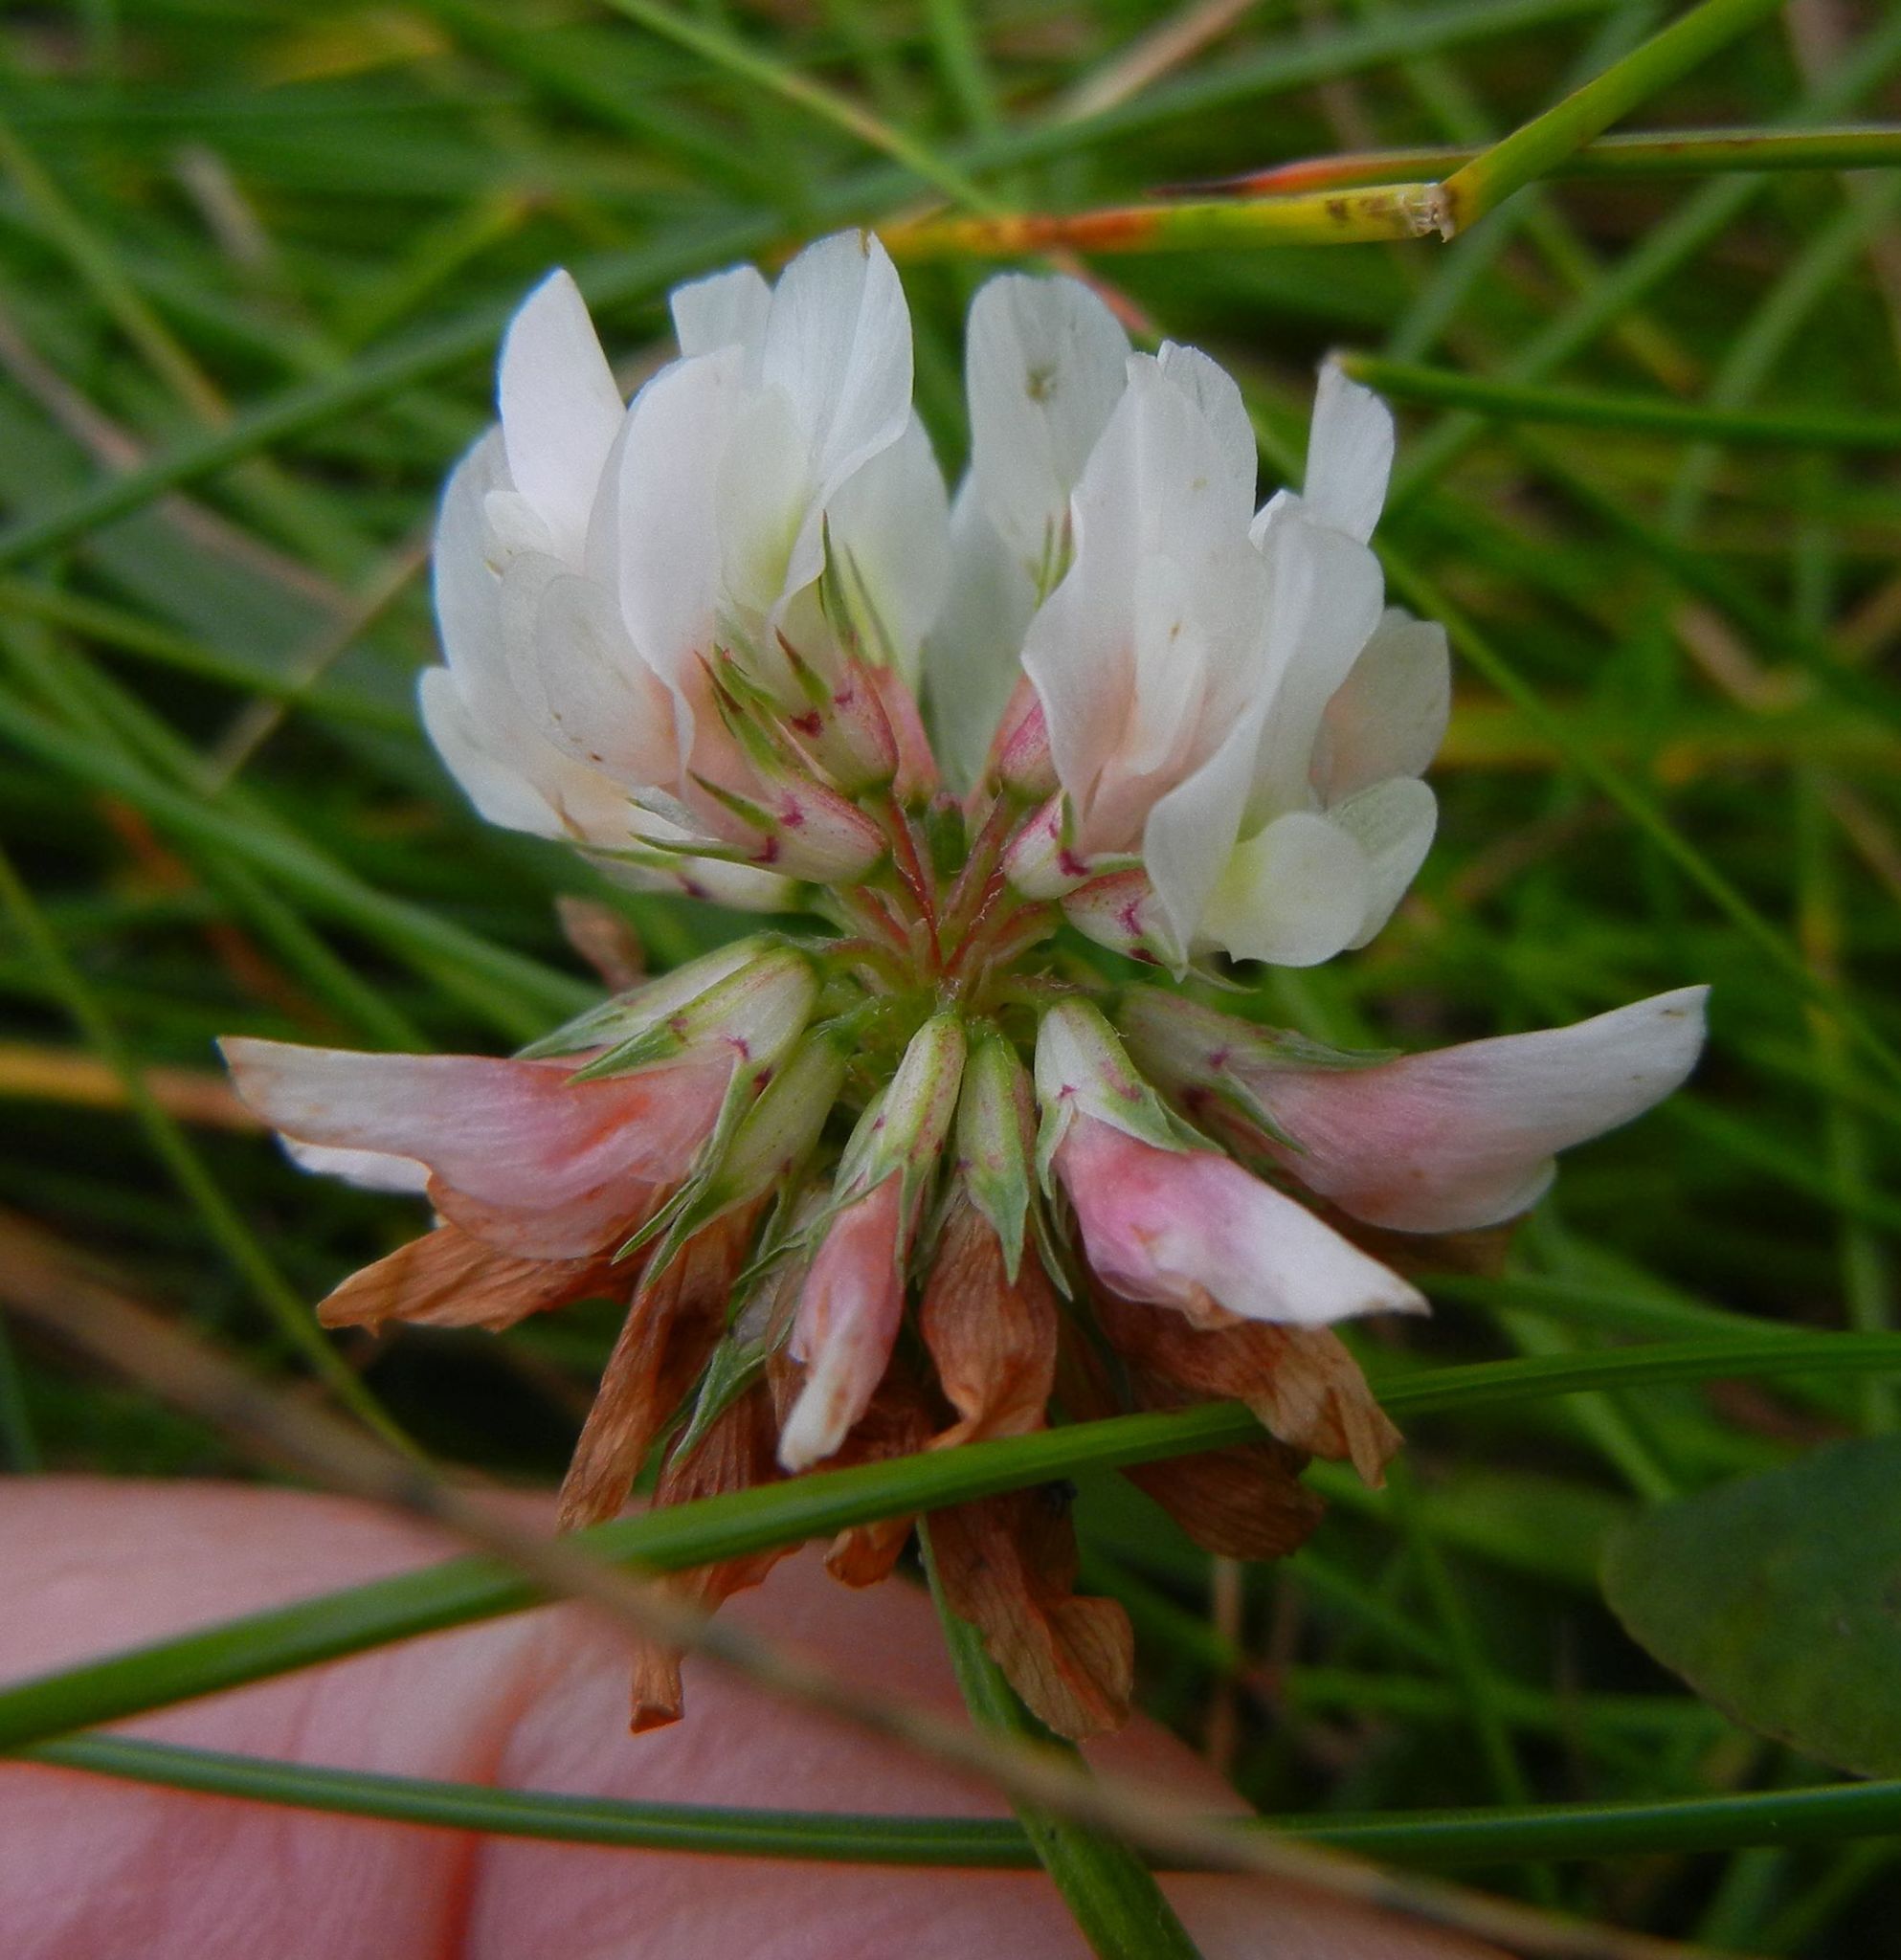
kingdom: Plantae
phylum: Tracheophyta
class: Magnoliopsida
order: Fabales
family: Fabaceae
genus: Trifolium
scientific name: Trifolium repens
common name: White clover
